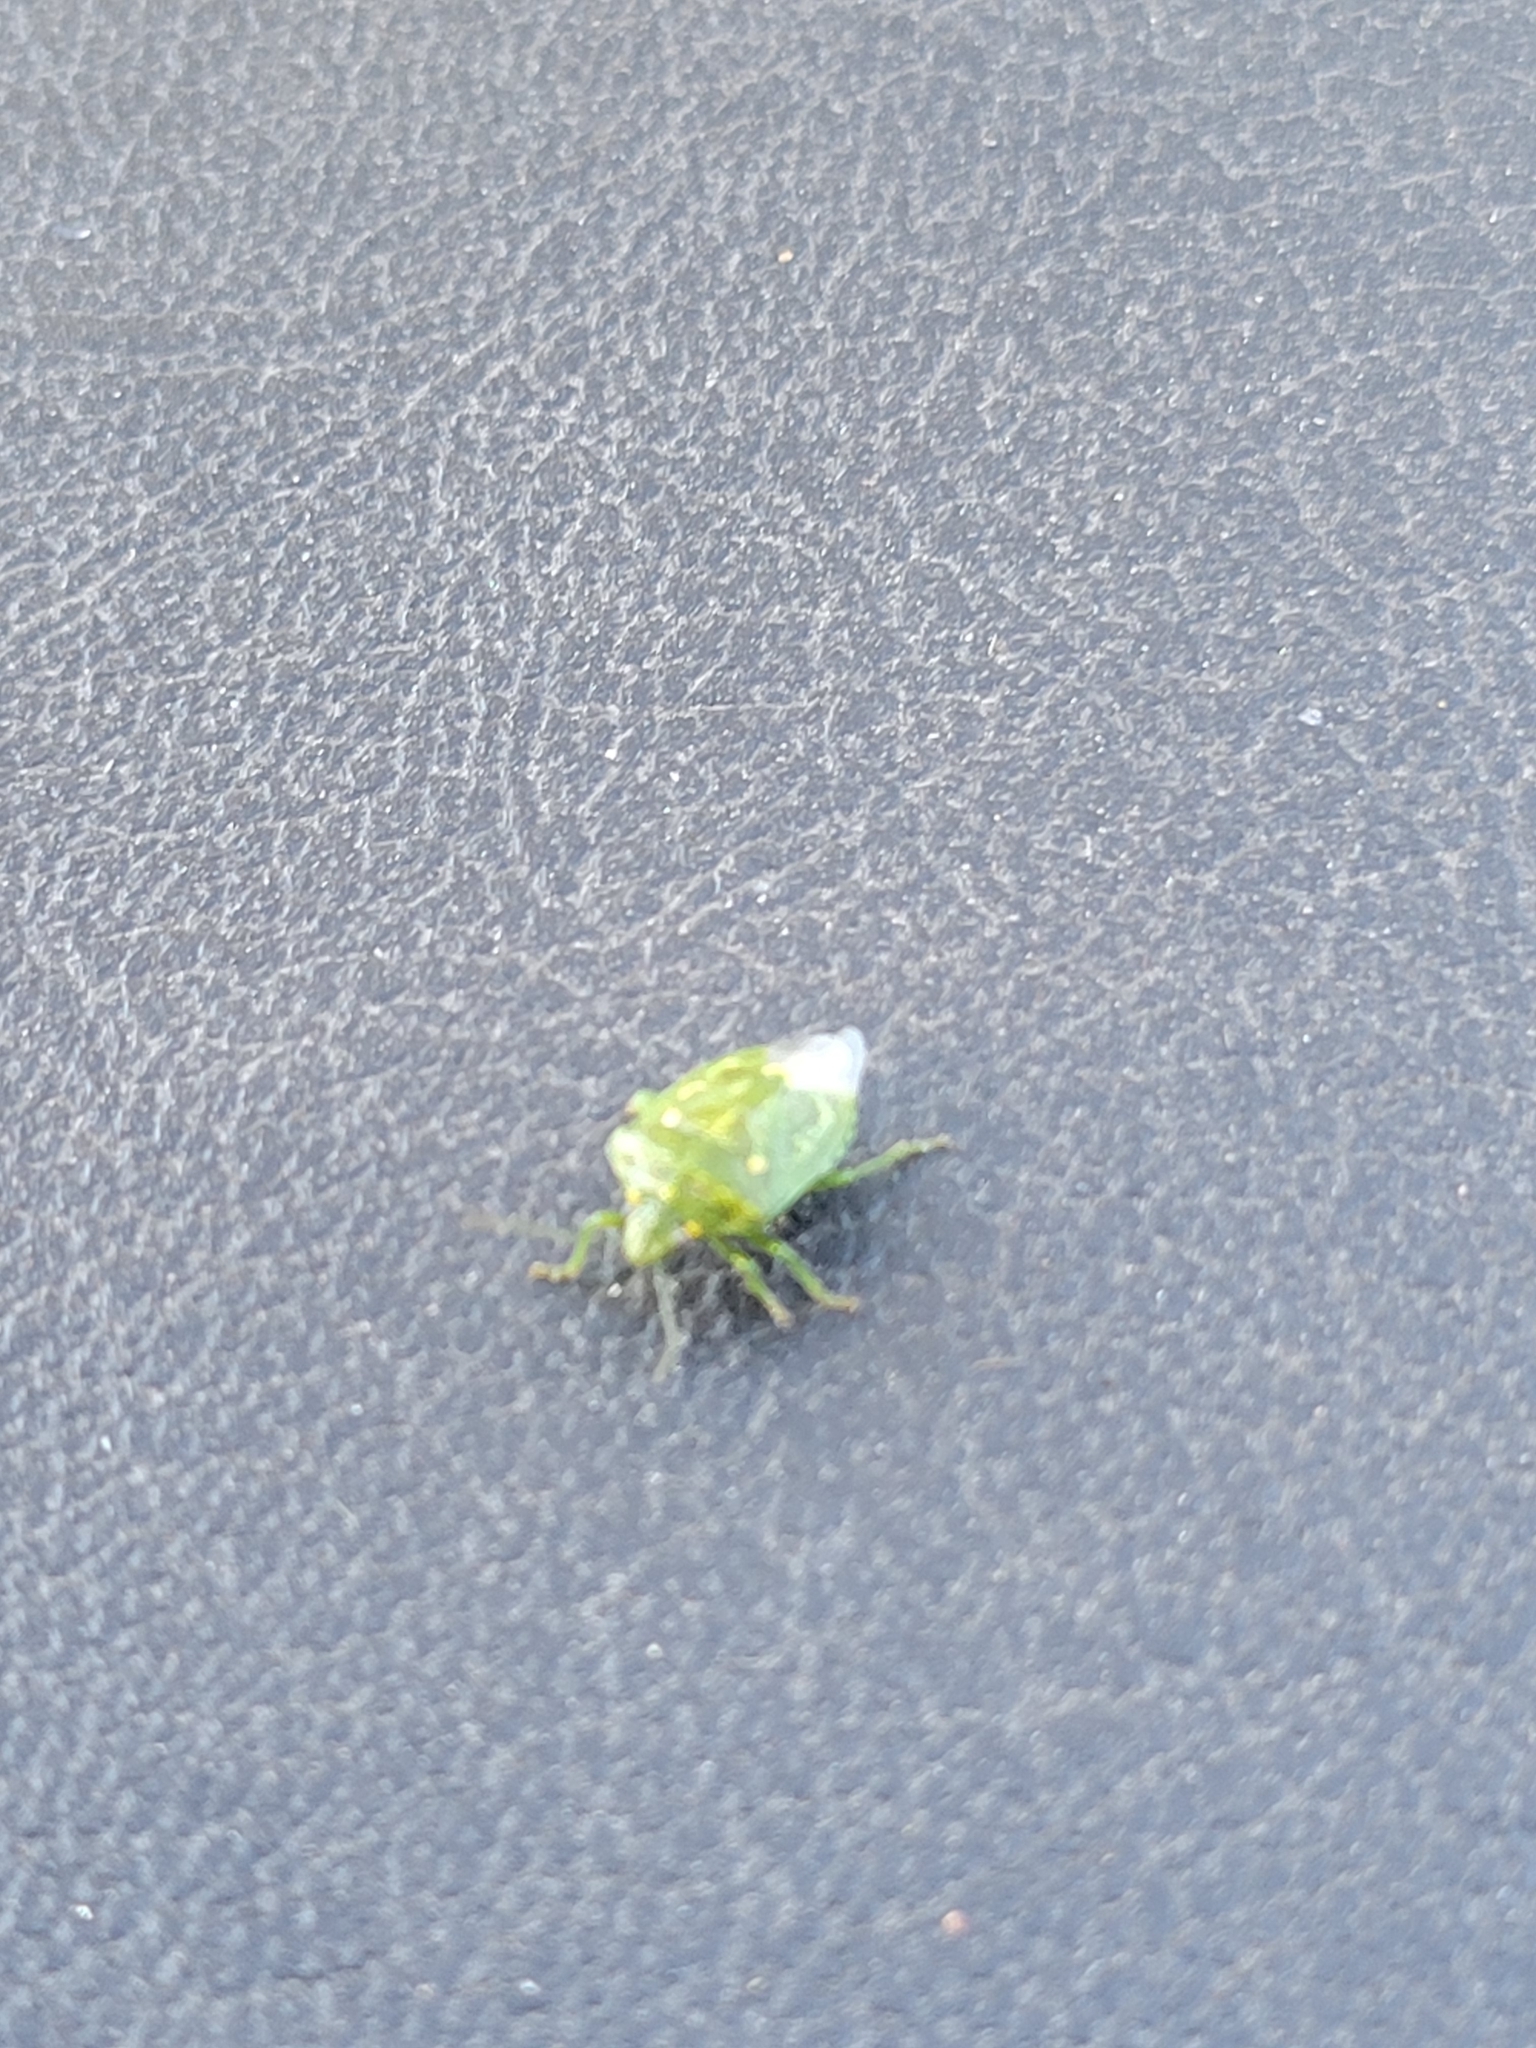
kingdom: Animalia
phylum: Arthropoda
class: Insecta
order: Hemiptera
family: Pentatomidae
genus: Banasa
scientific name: Banasa euchlora
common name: Cedar berry bug
